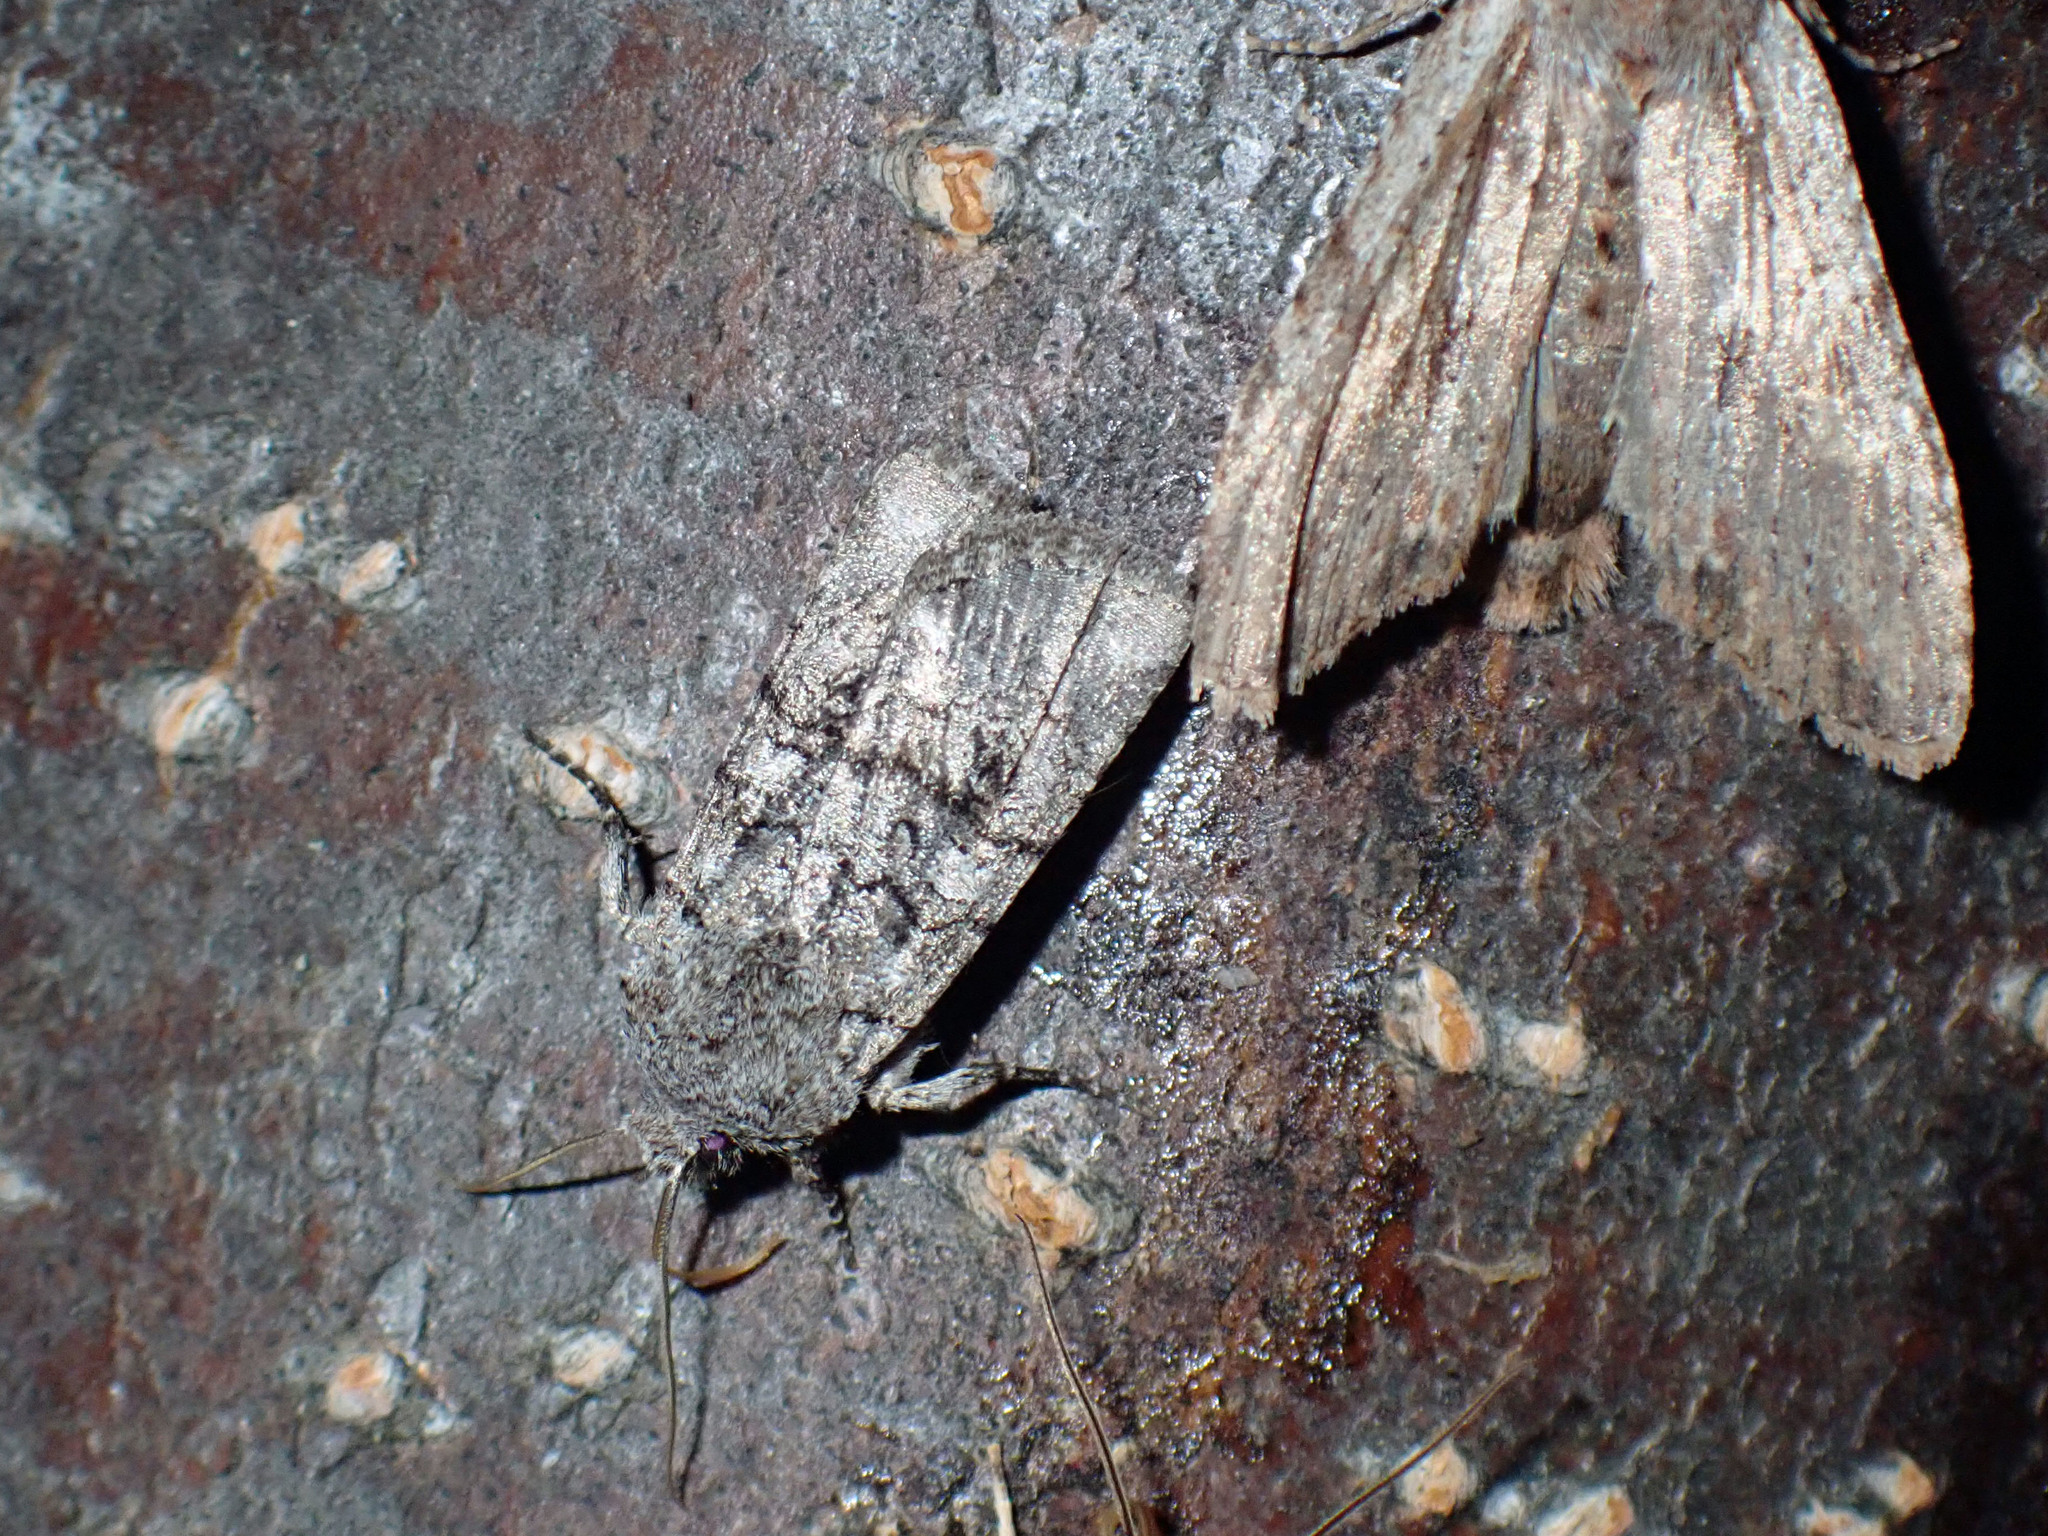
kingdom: Animalia
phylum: Arthropoda
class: Insecta
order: Lepidoptera
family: Noctuidae
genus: Litholomia
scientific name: Litholomia napaea
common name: False pinion moth
